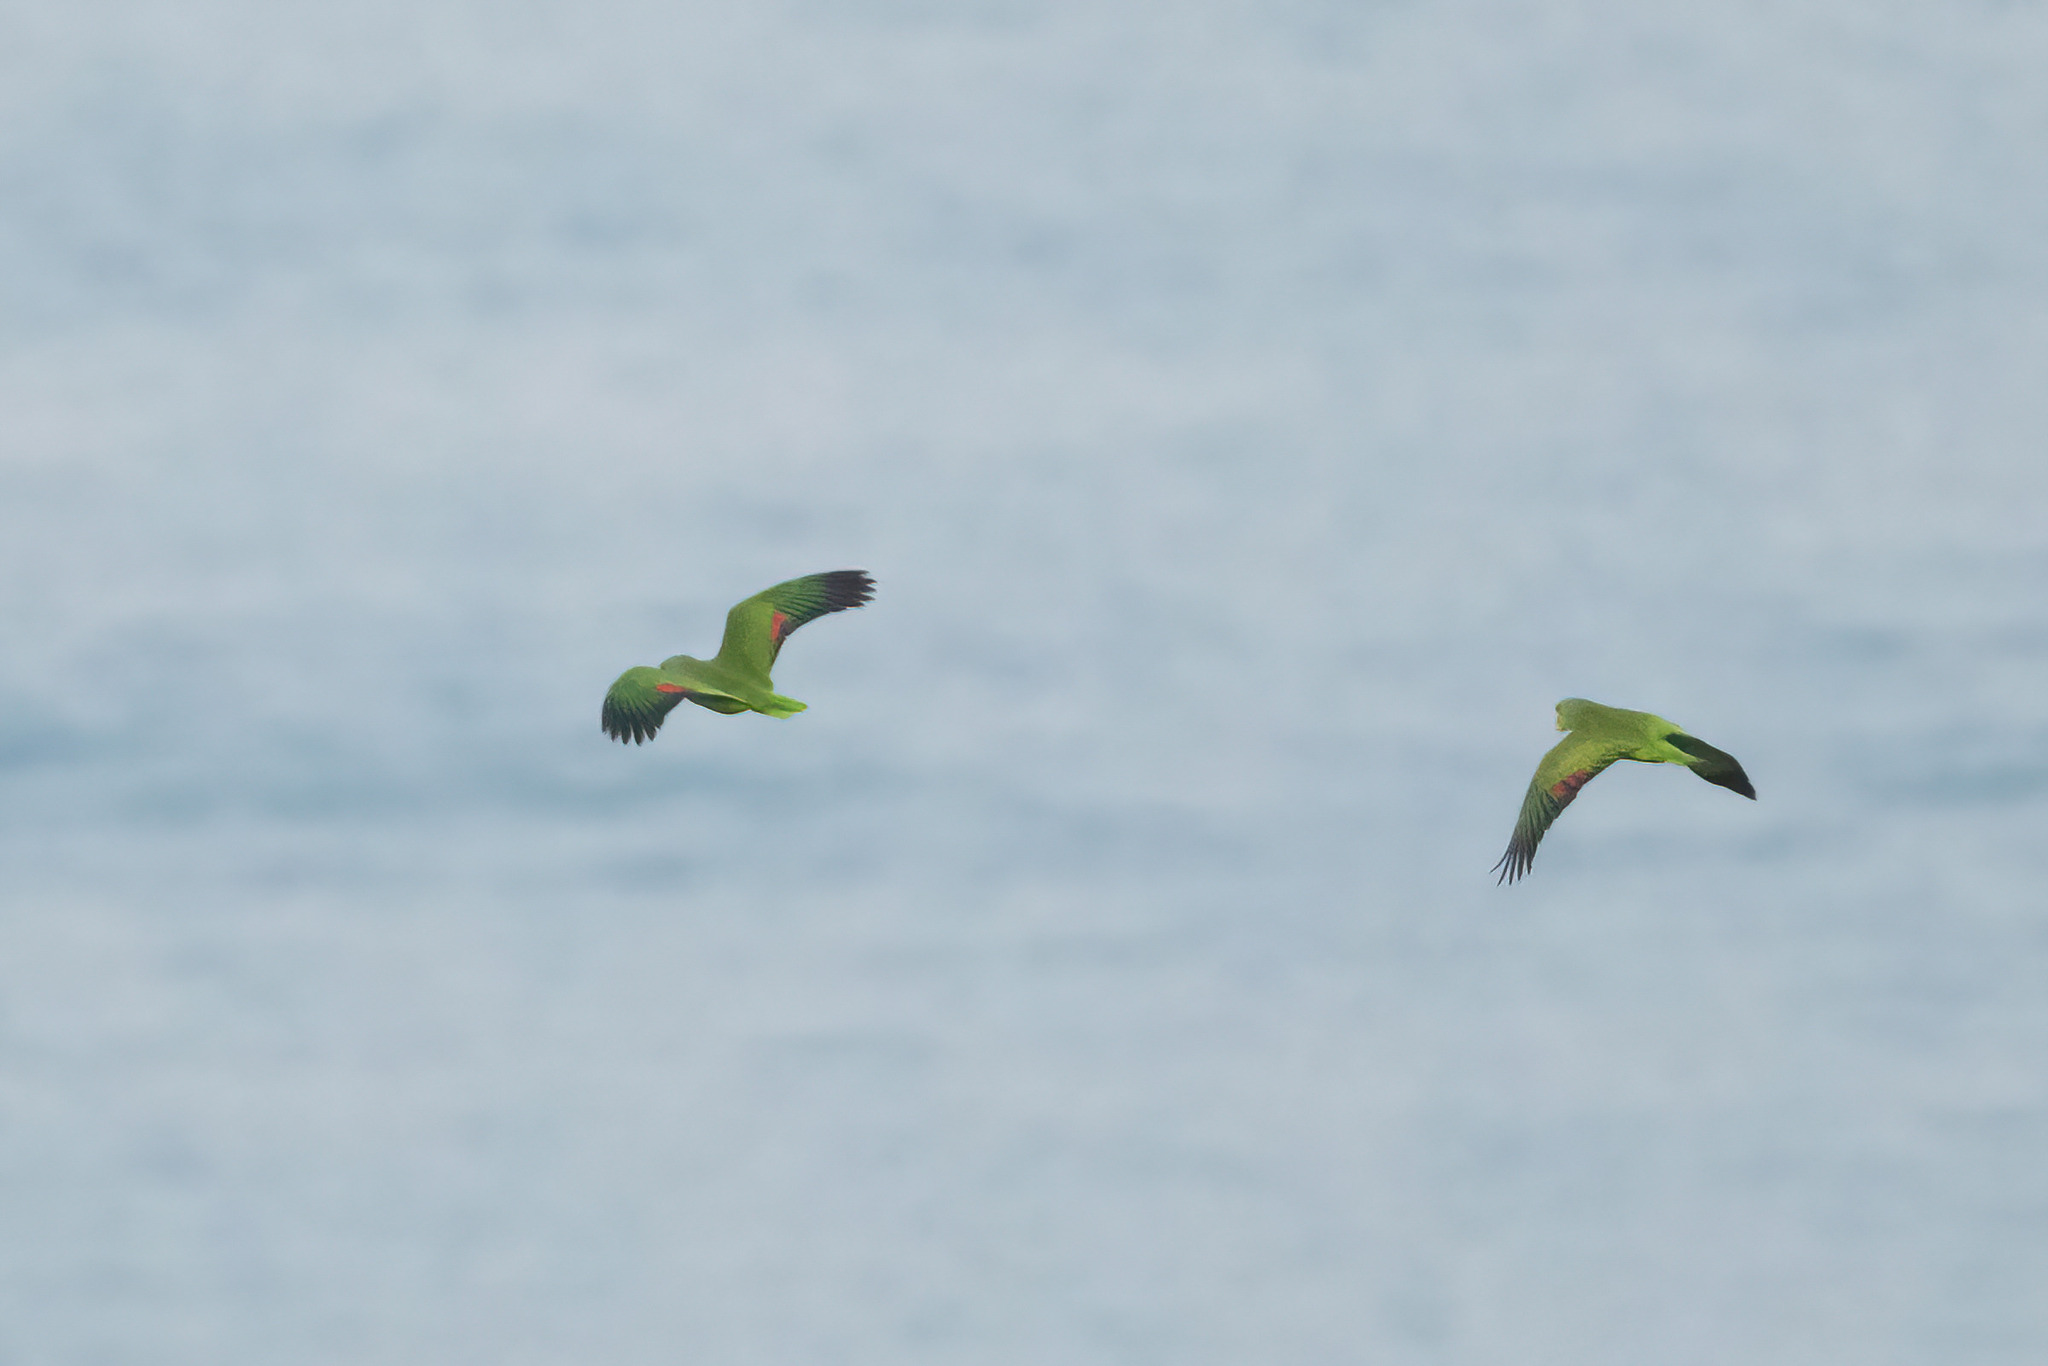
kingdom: Animalia
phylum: Chordata
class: Aves
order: Psittaciformes
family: Psittacidae
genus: Amazona
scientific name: Amazona finschi
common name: Lilac-crowned amazon
